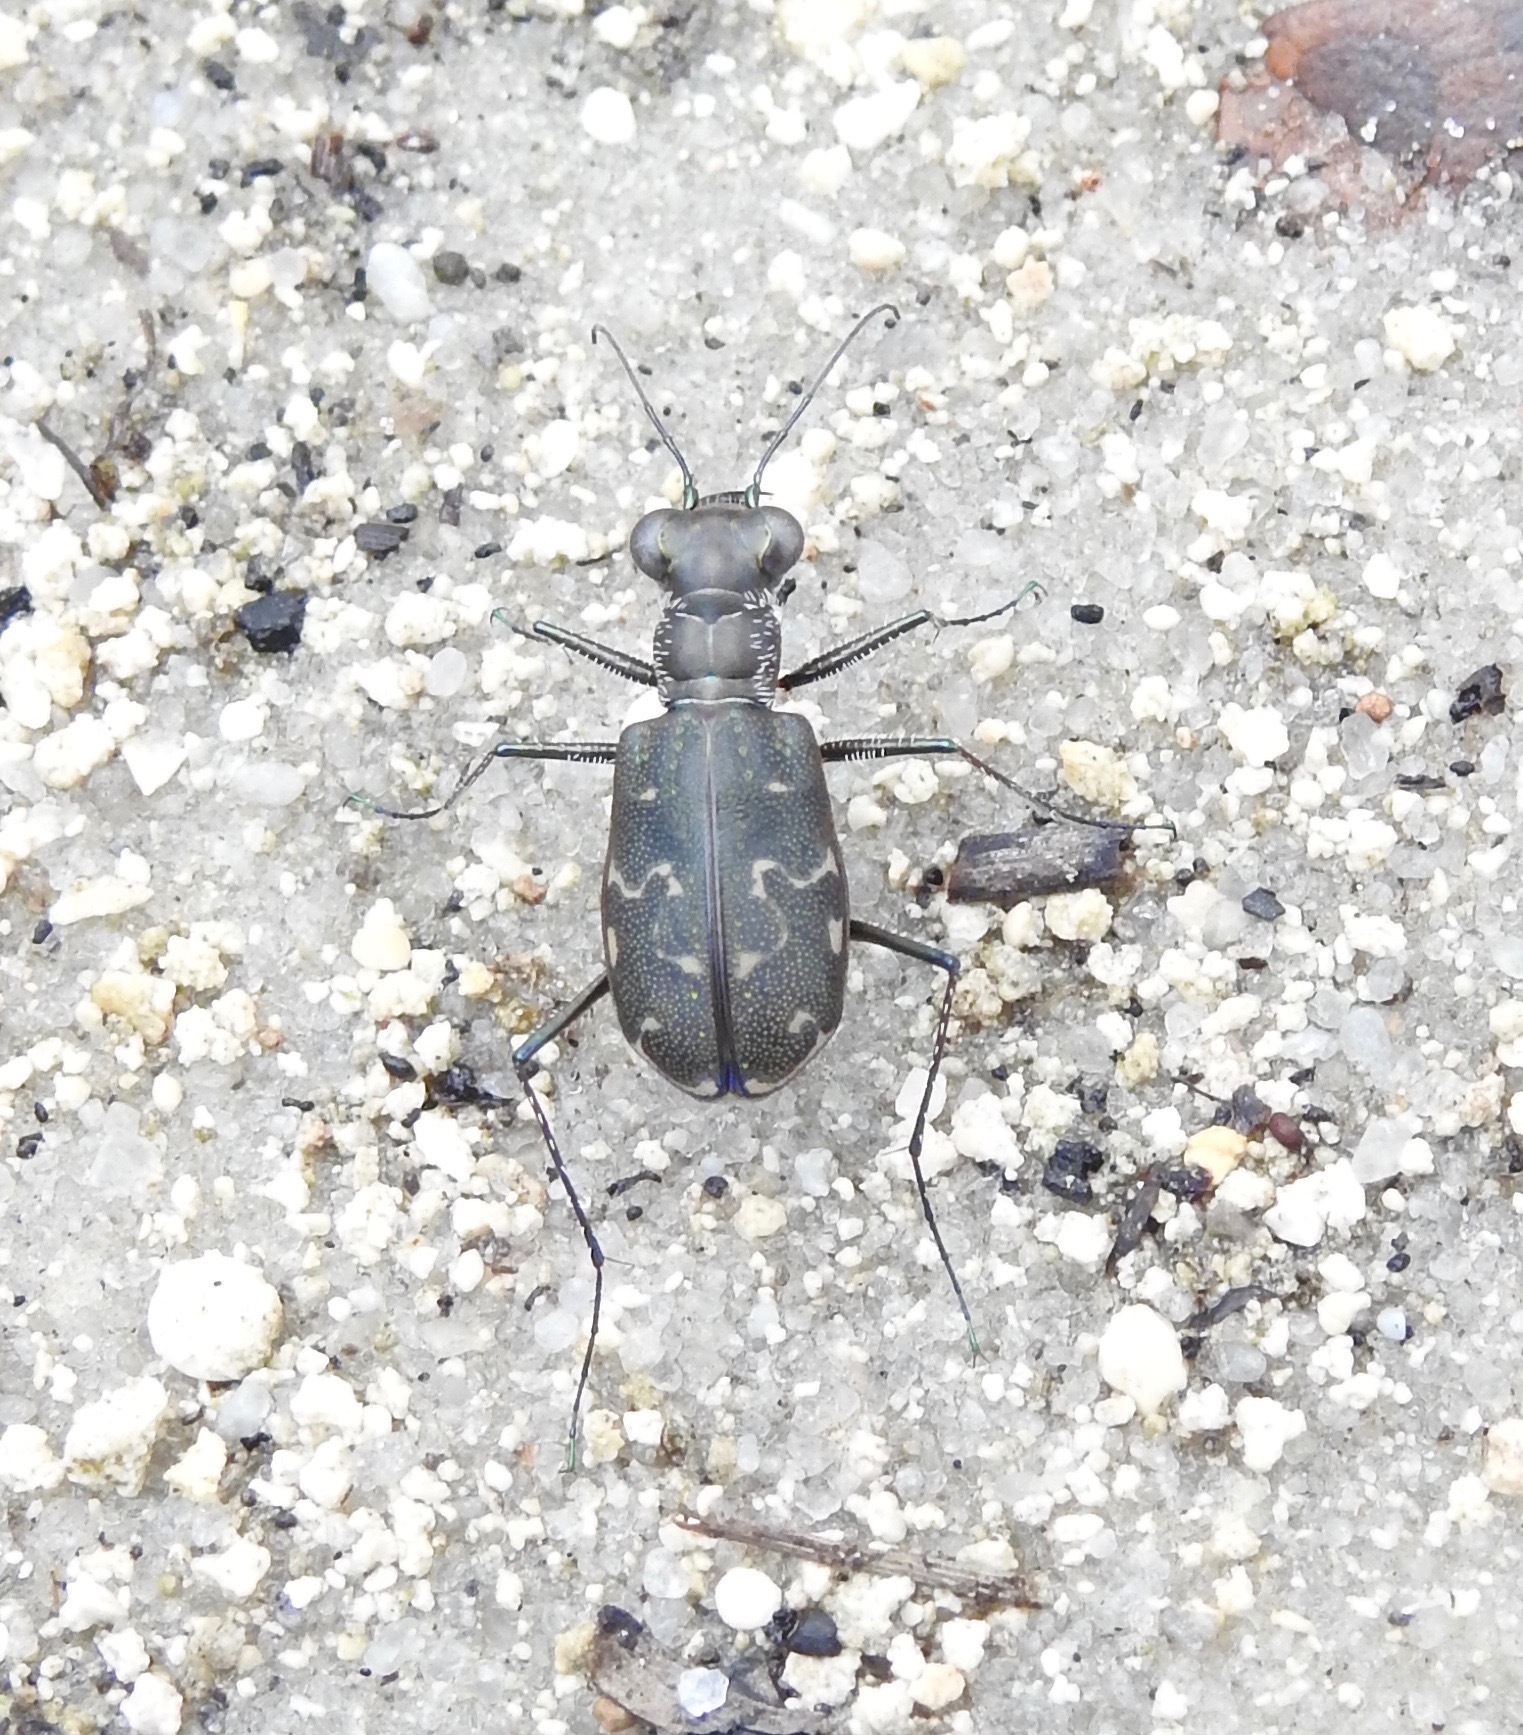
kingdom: Animalia
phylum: Arthropoda
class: Insecta
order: Coleoptera
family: Carabidae
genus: Cicindela
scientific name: Cicindela trifasciata
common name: Mudflat tiger beetle
